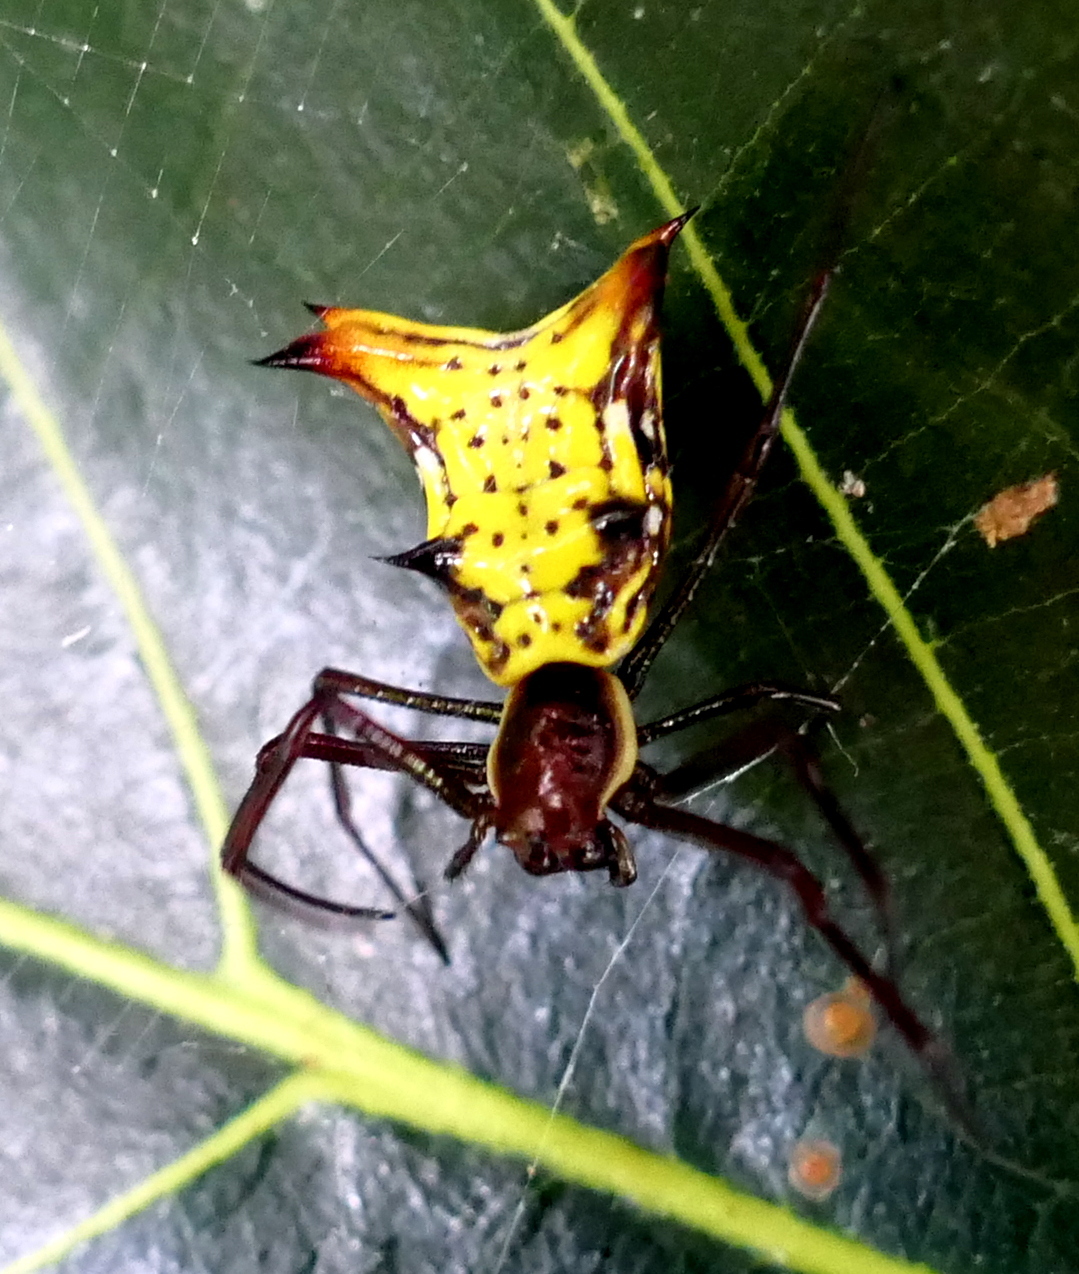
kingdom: Animalia
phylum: Arthropoda
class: Arachnida
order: Araneae
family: Araneidae
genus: Micrathena
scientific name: Micrathena fissispina
